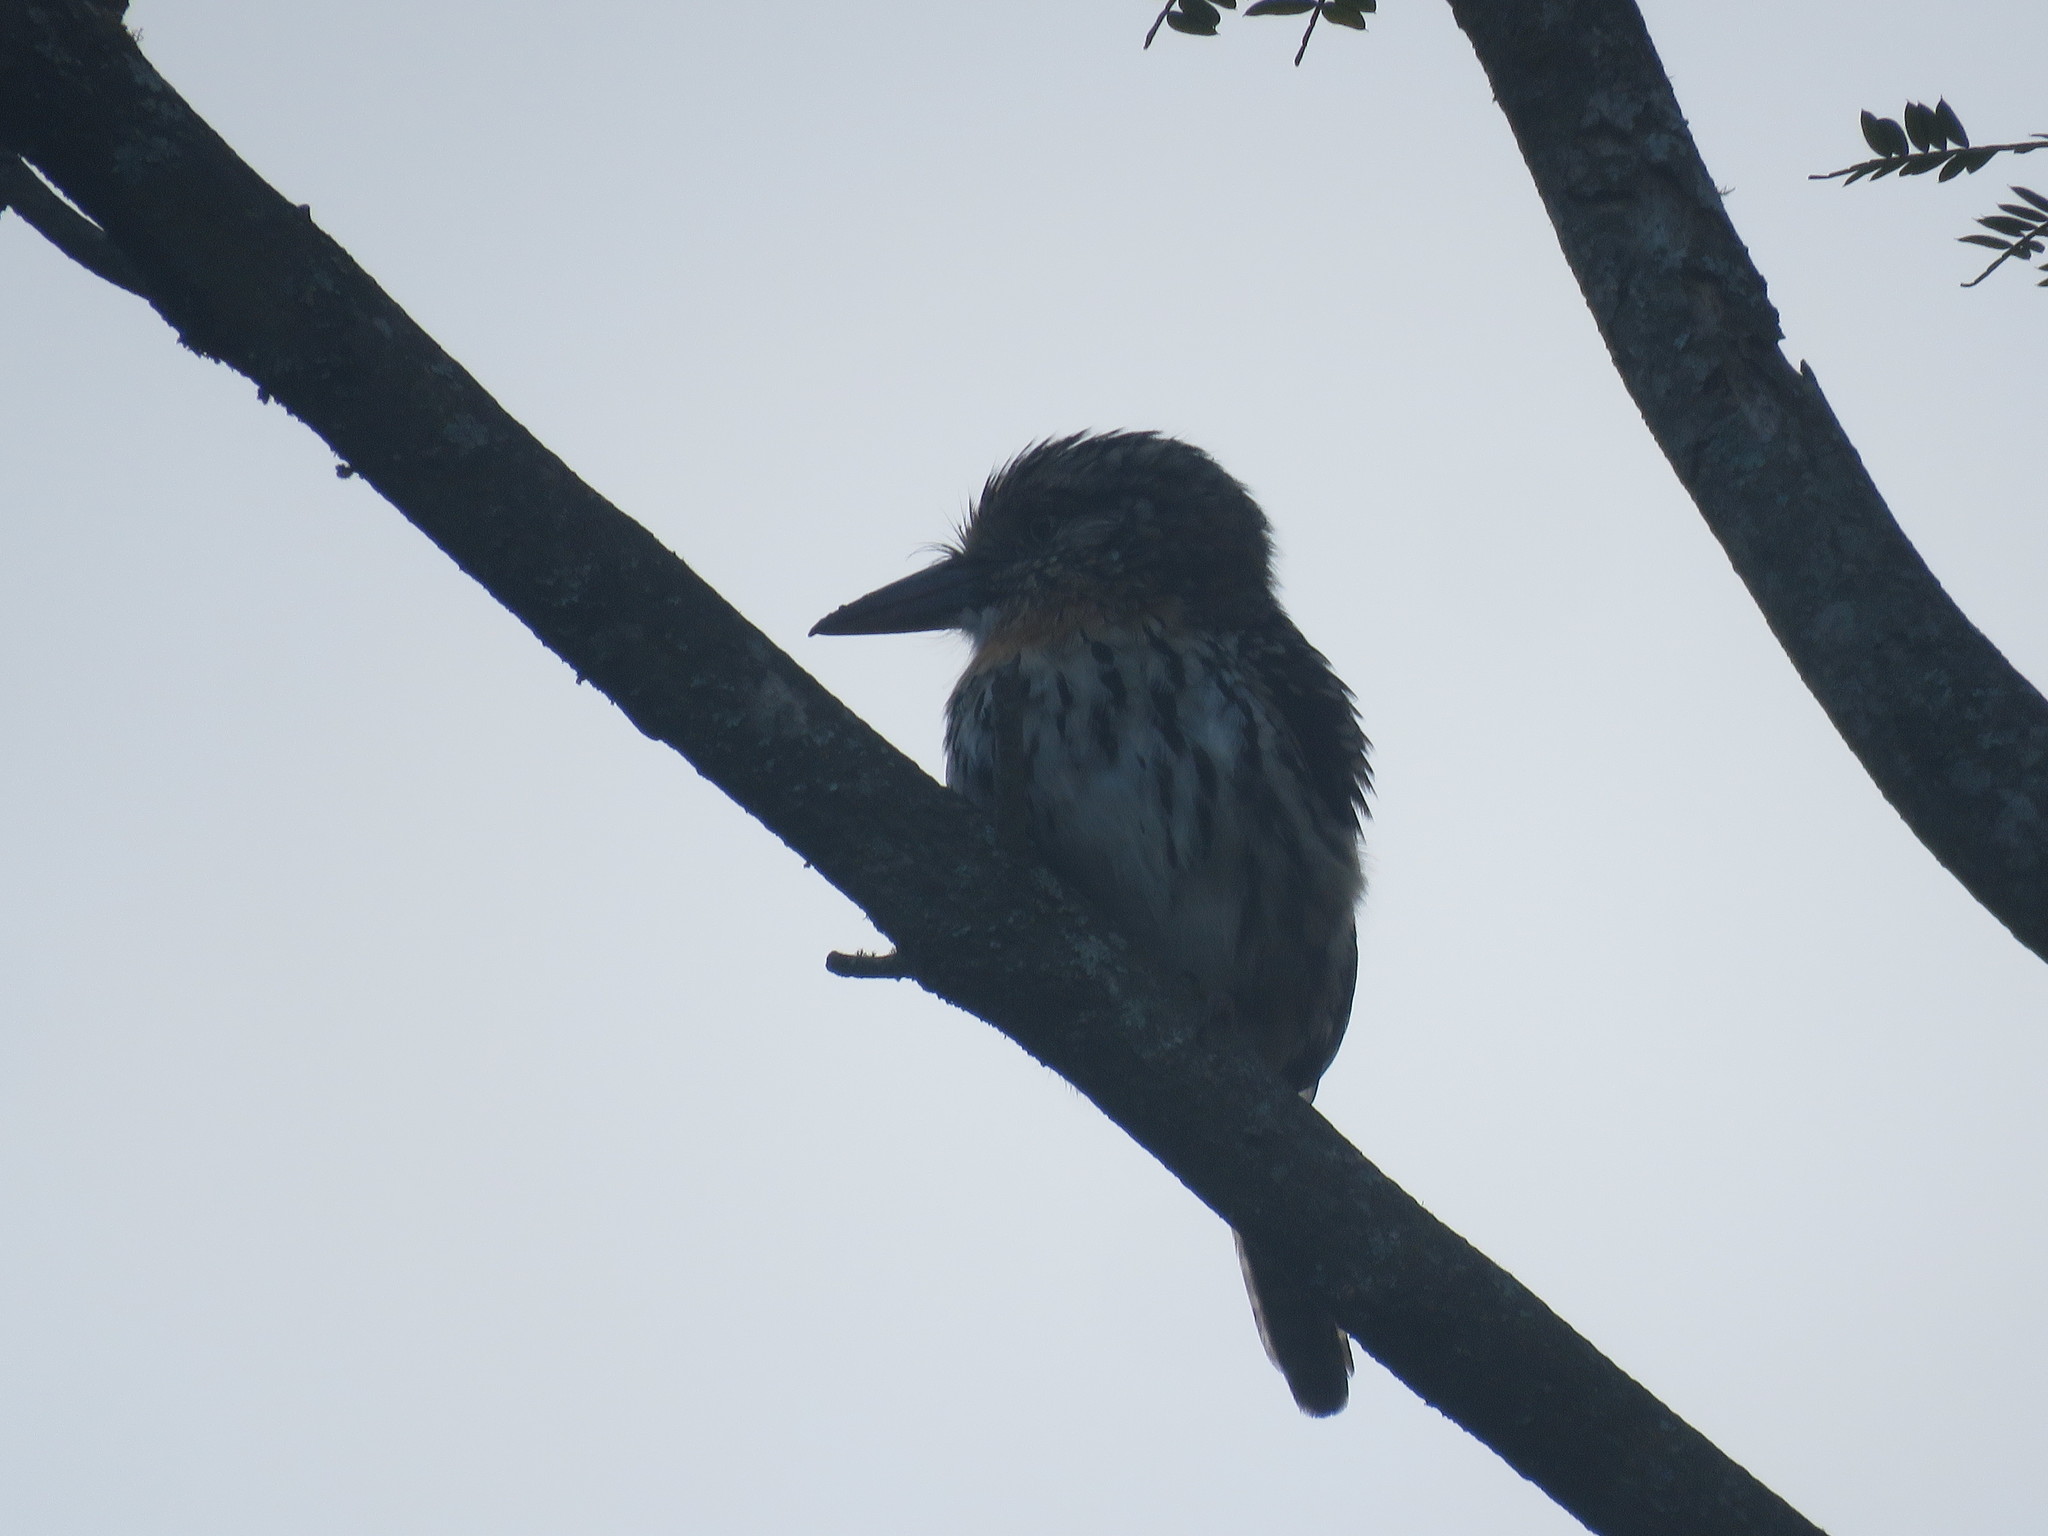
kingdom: Animalia
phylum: Chordata
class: Aves
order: Piciformes
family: Bucconidae
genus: Nystalus
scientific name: Nystalus maculatus
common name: Caatinga puffbird
